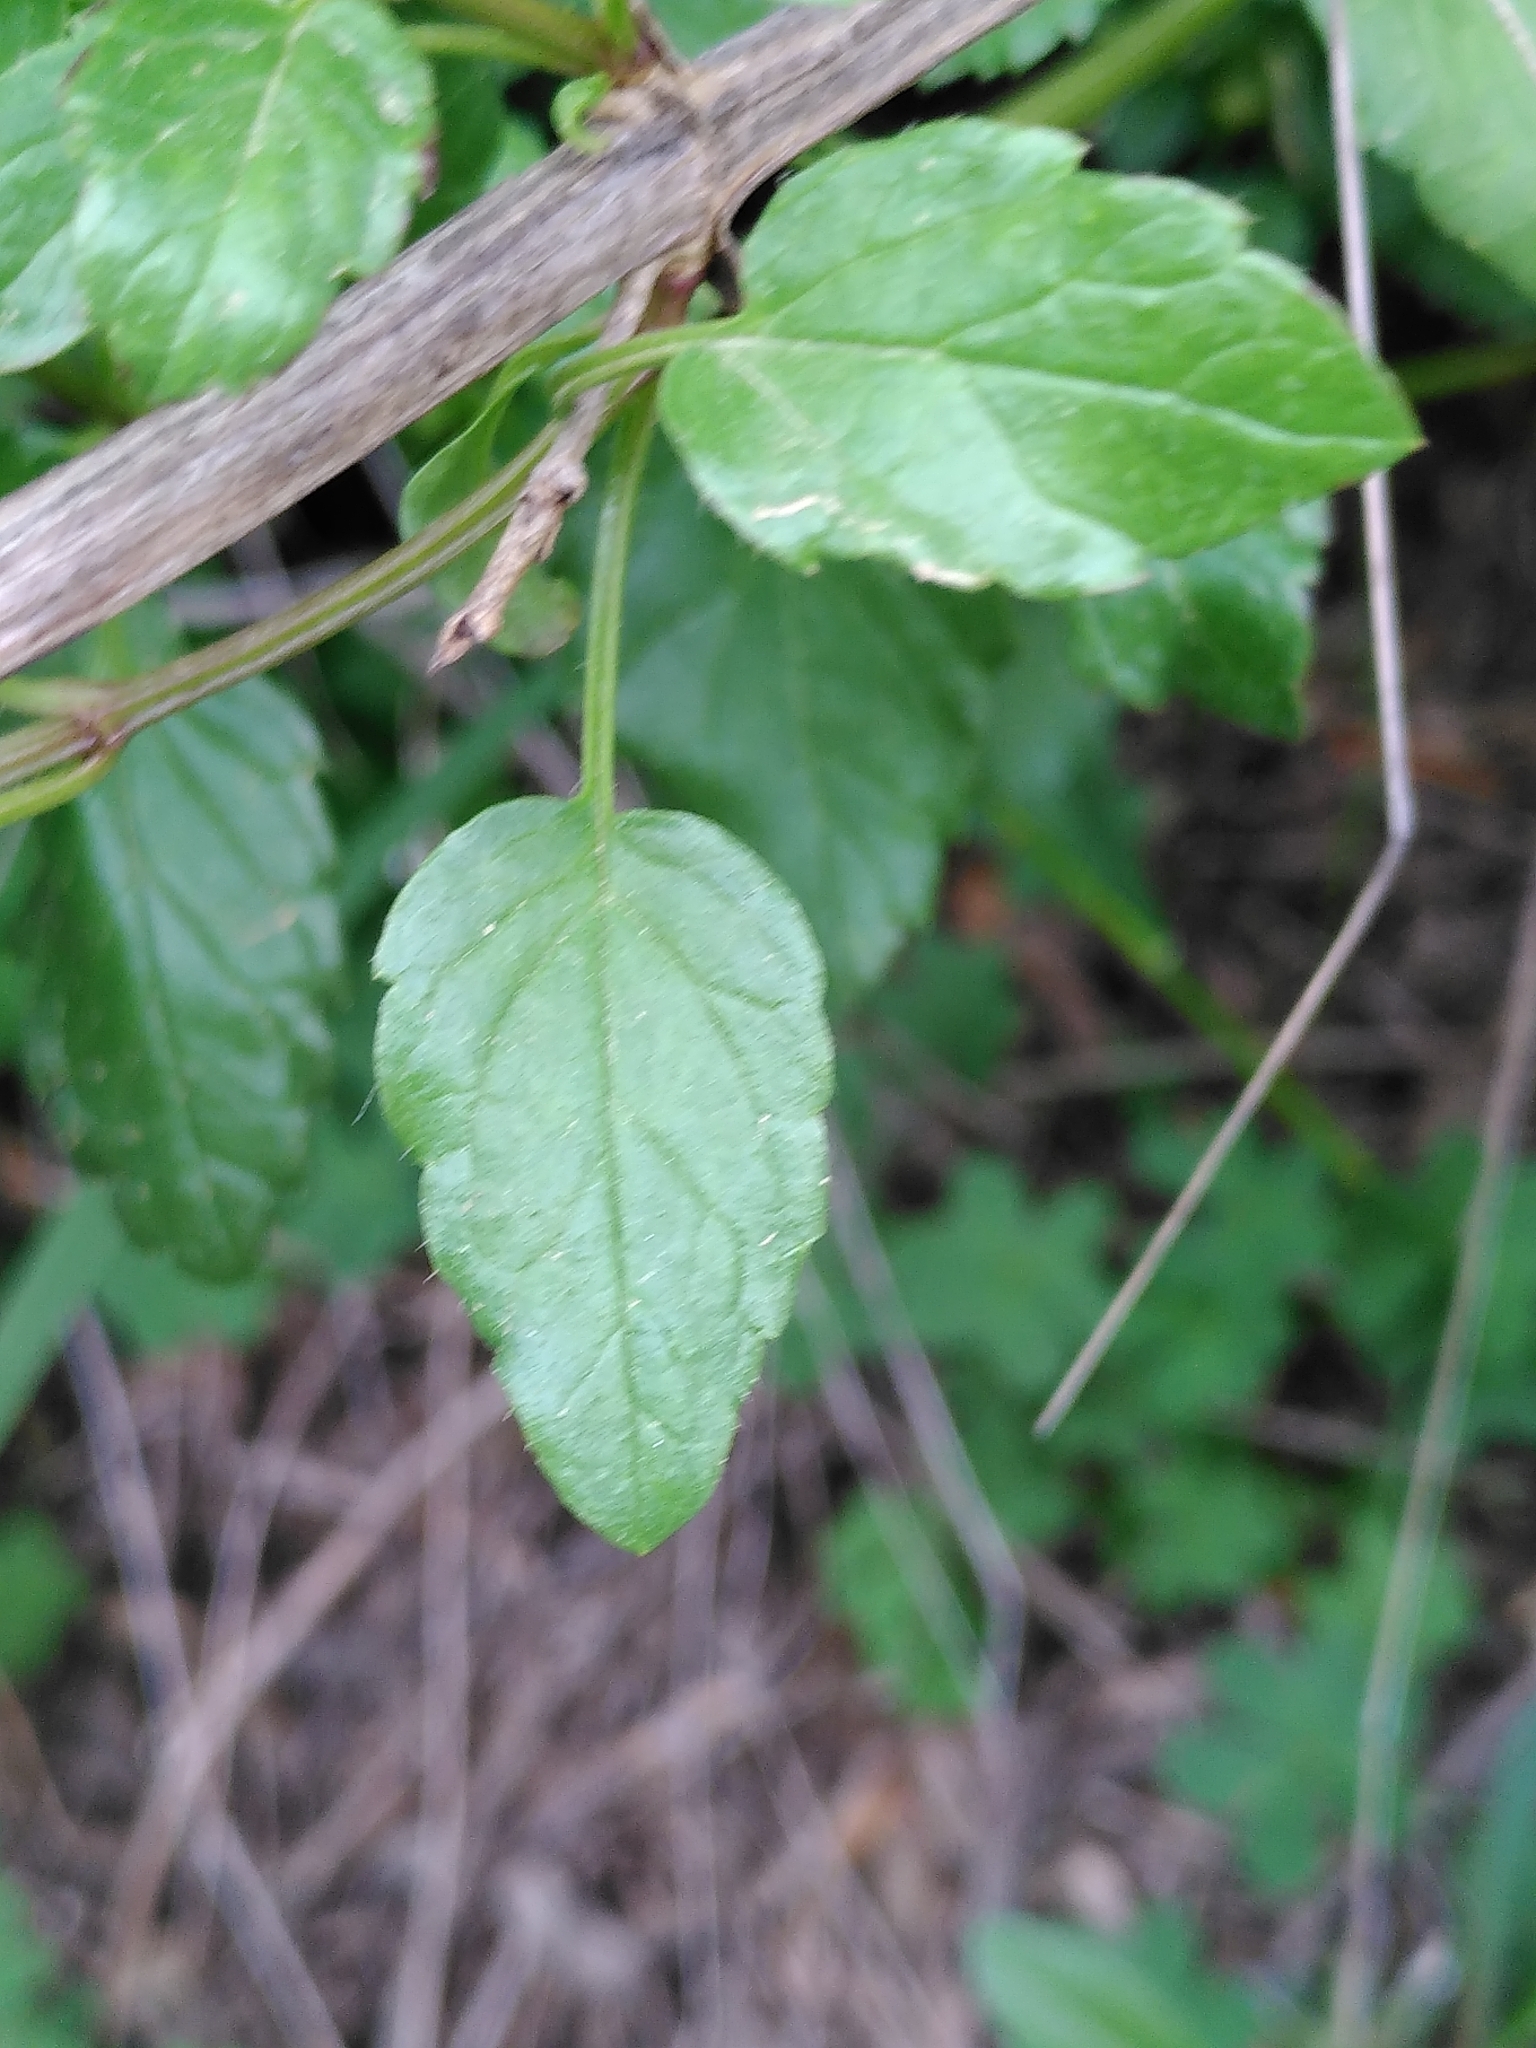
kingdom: Plantae
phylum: Tracheophyta
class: Magnoliopsida
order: Lamiales
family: Lamiaceae
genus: Prasium
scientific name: Prasium majus
